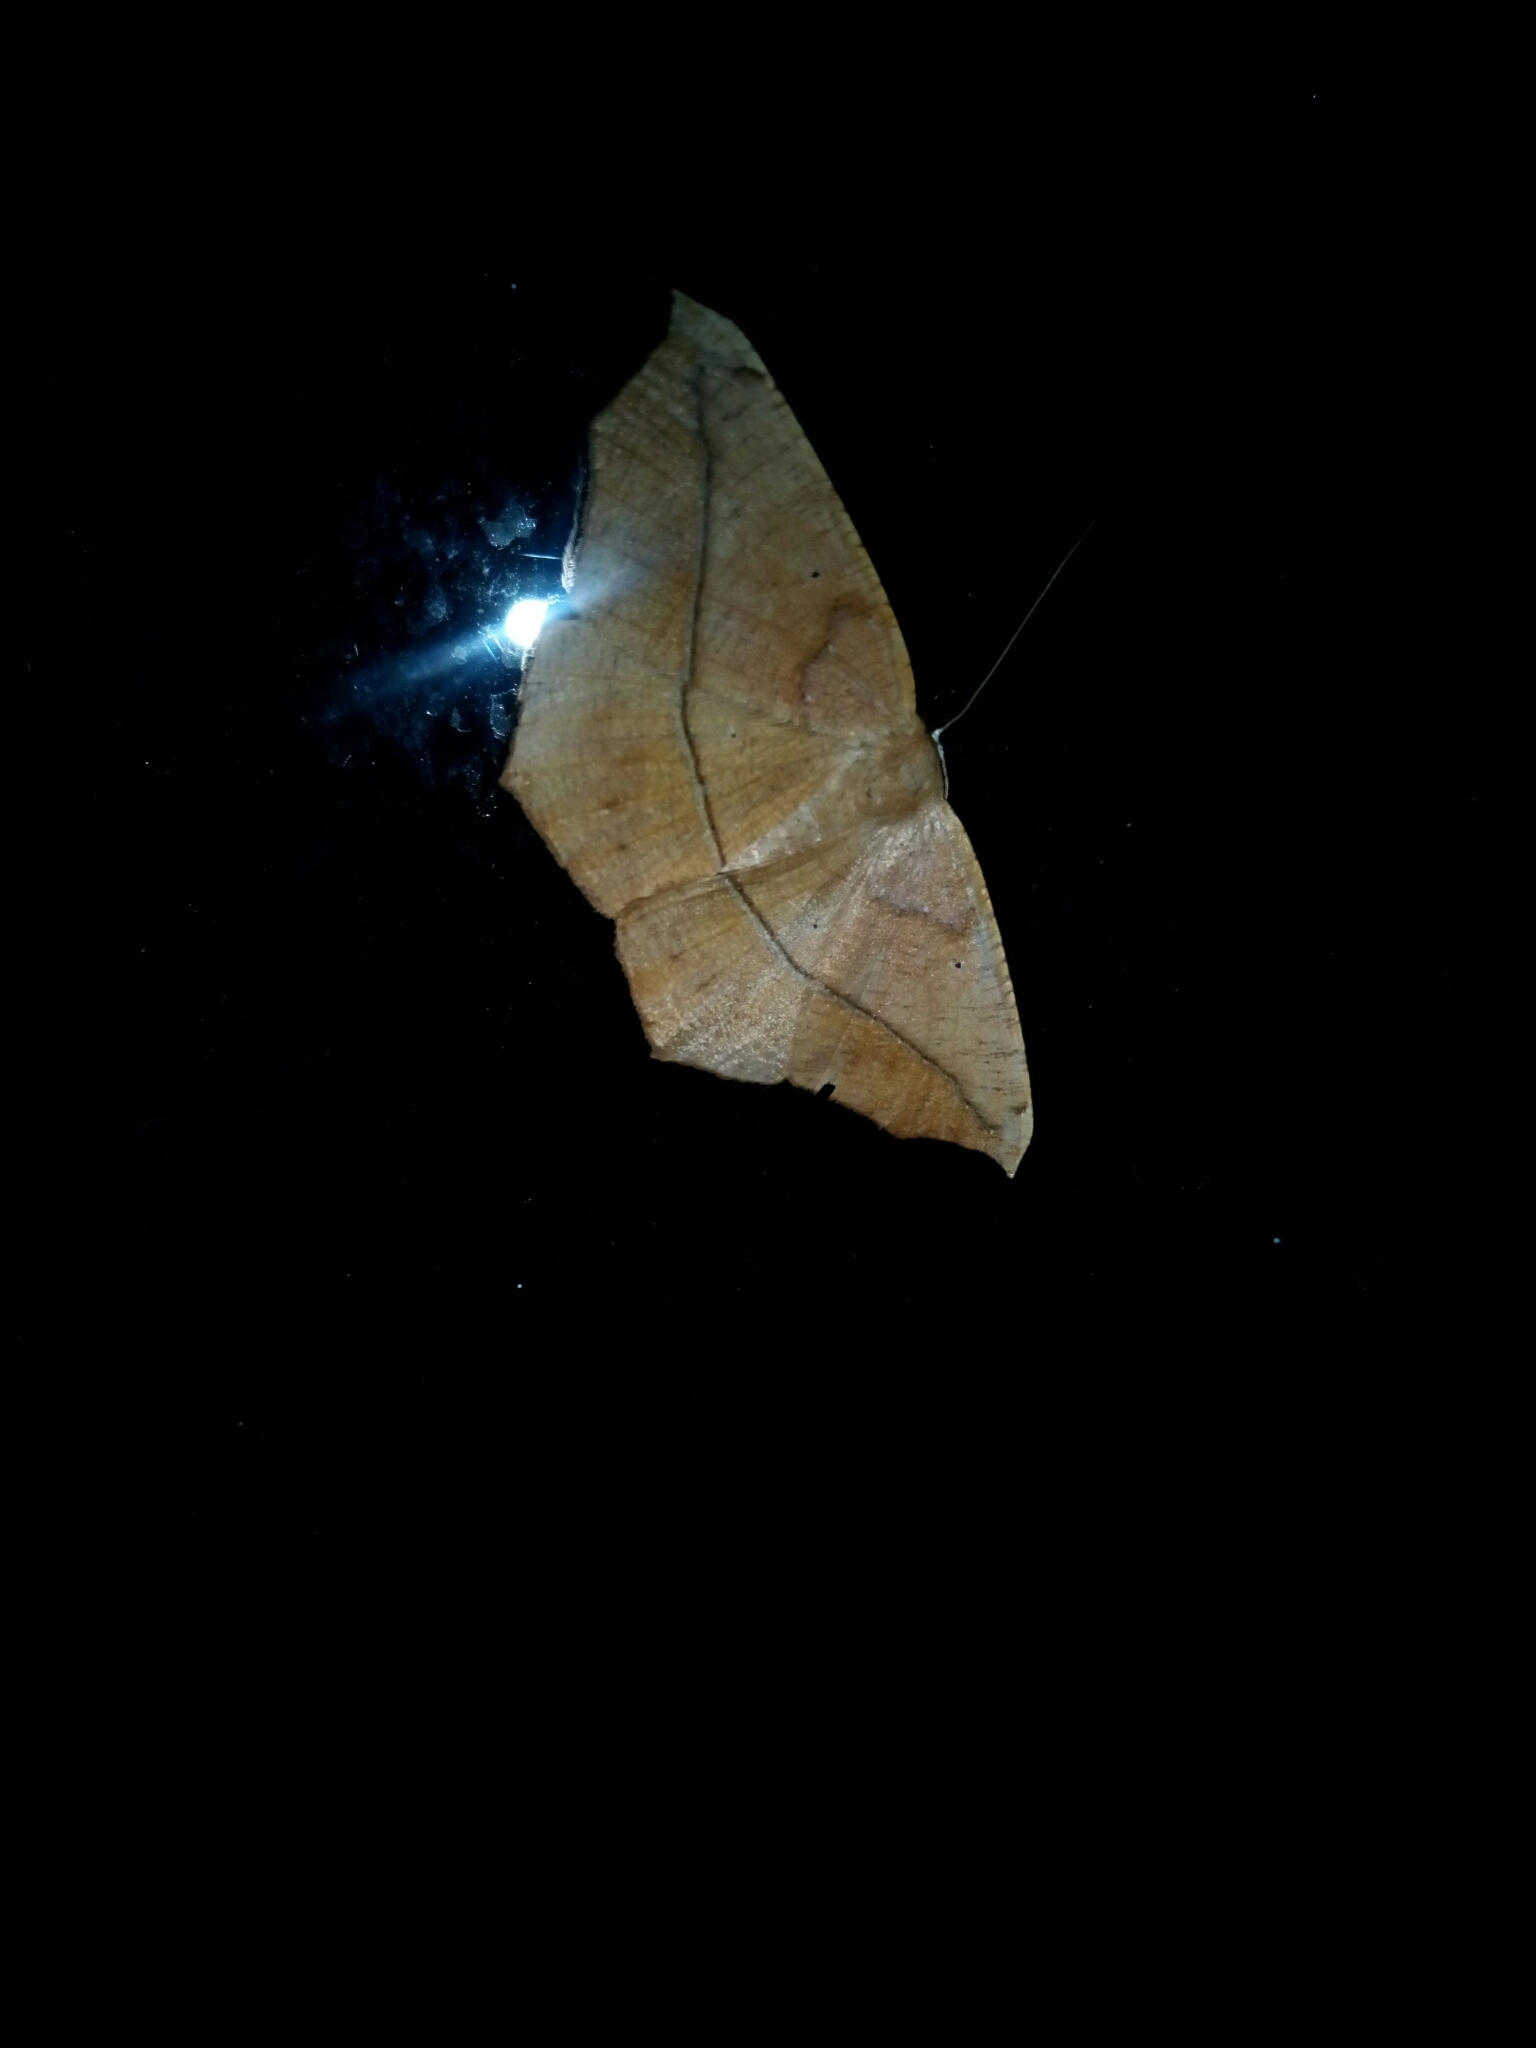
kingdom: Animalia
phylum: Arthropoda
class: Insecta
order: Lepidoptera
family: Geometridae
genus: Prochoerodes
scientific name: Prochoerodes lineola
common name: Large maple spanworm
